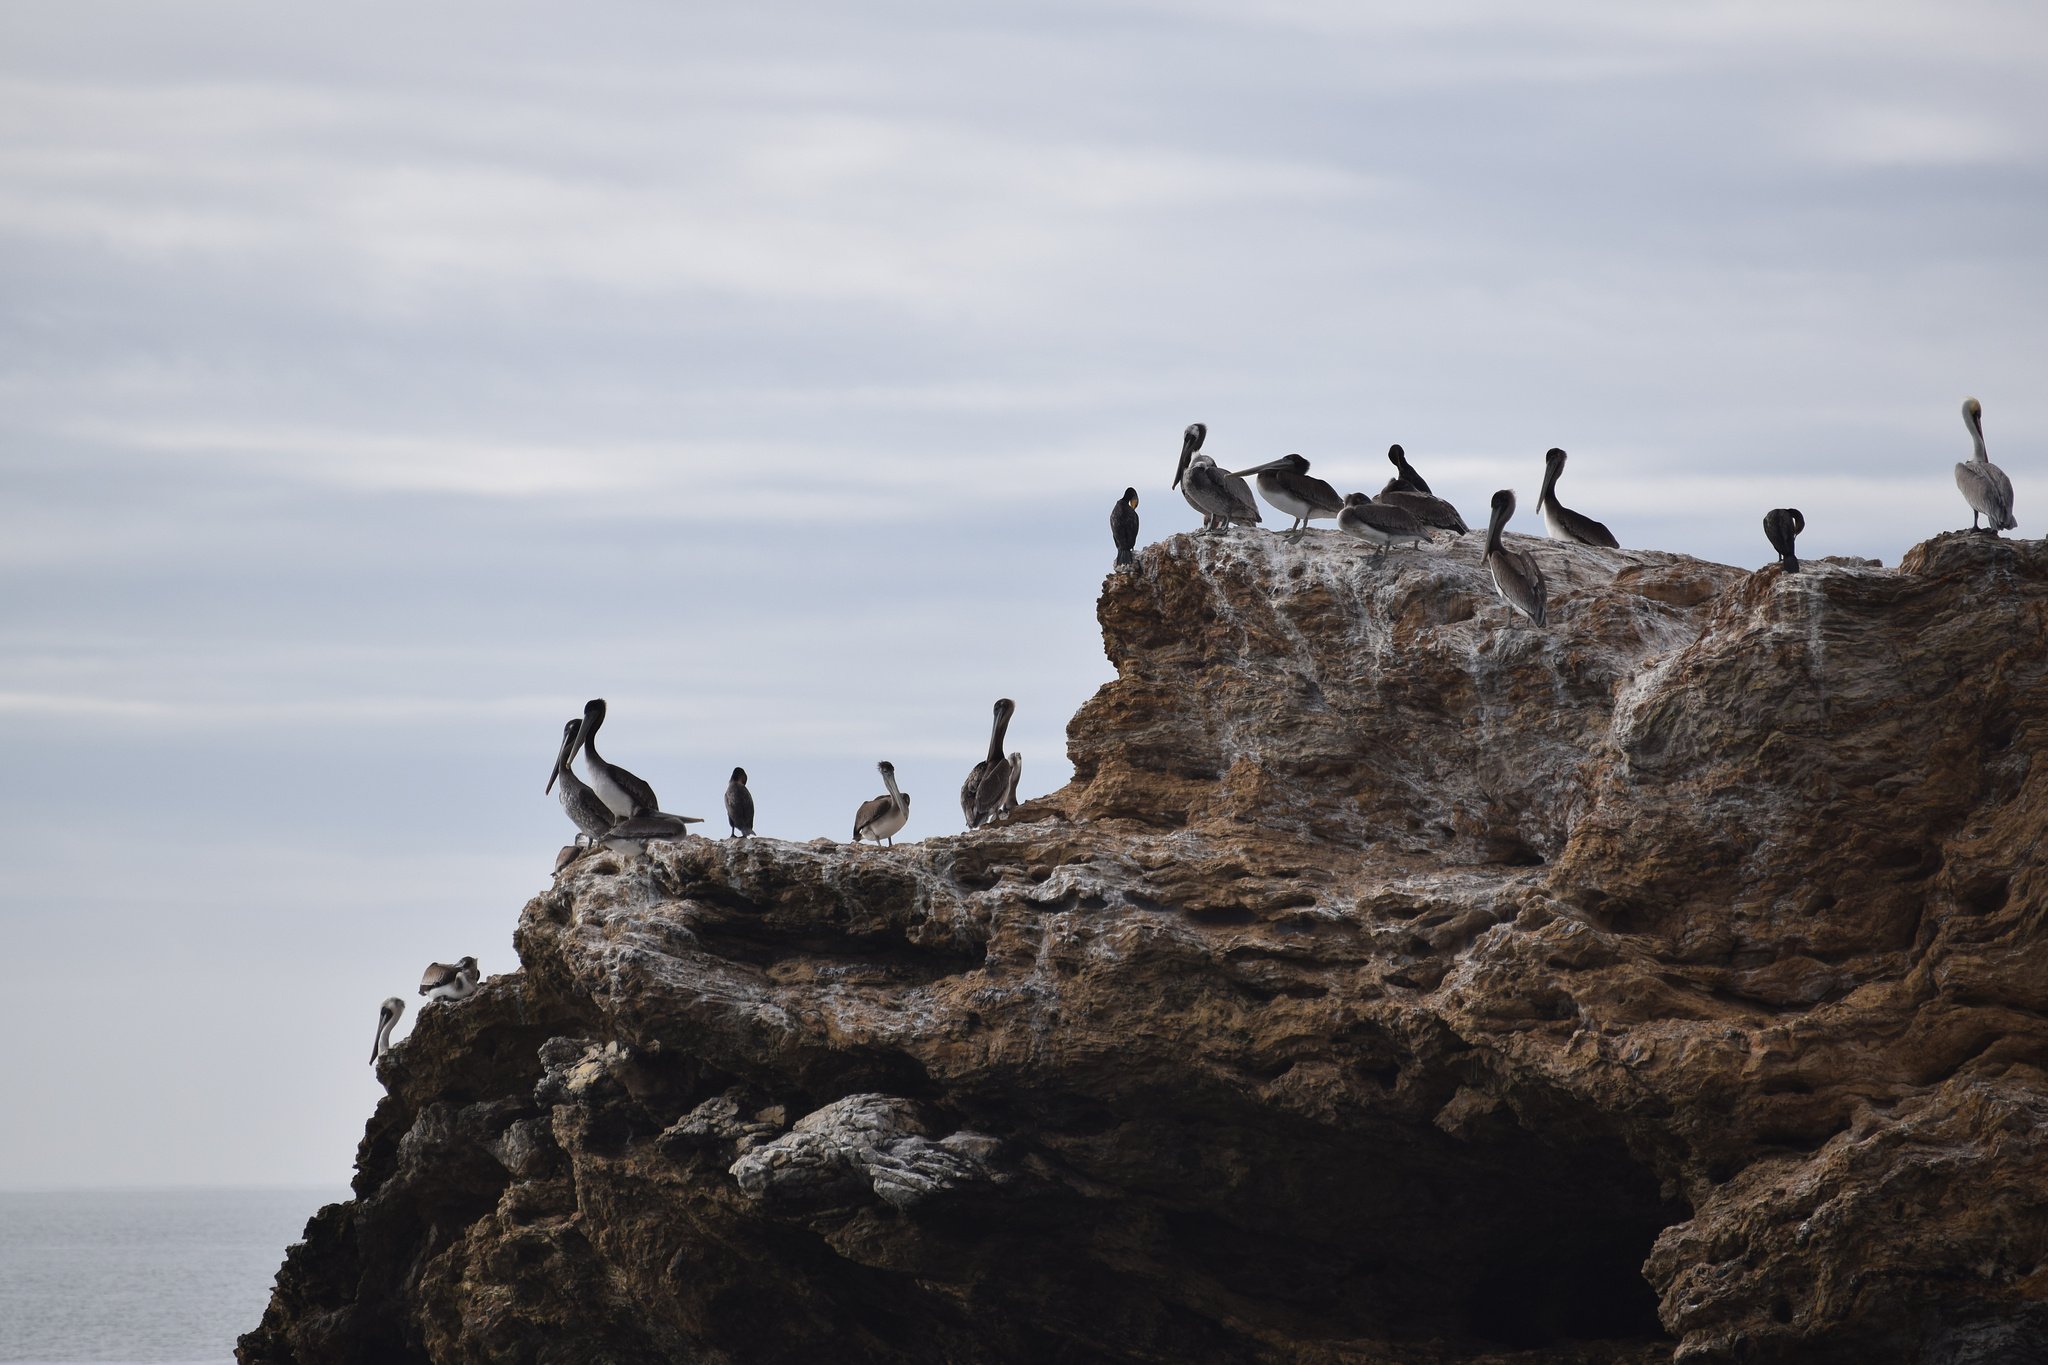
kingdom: Animalia
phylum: Chordata
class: Aves
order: Suliformes
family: Phalacrocoracidae
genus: Phalacrocorax
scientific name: Phalacrocorax auritus
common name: Double-crested cormorant
